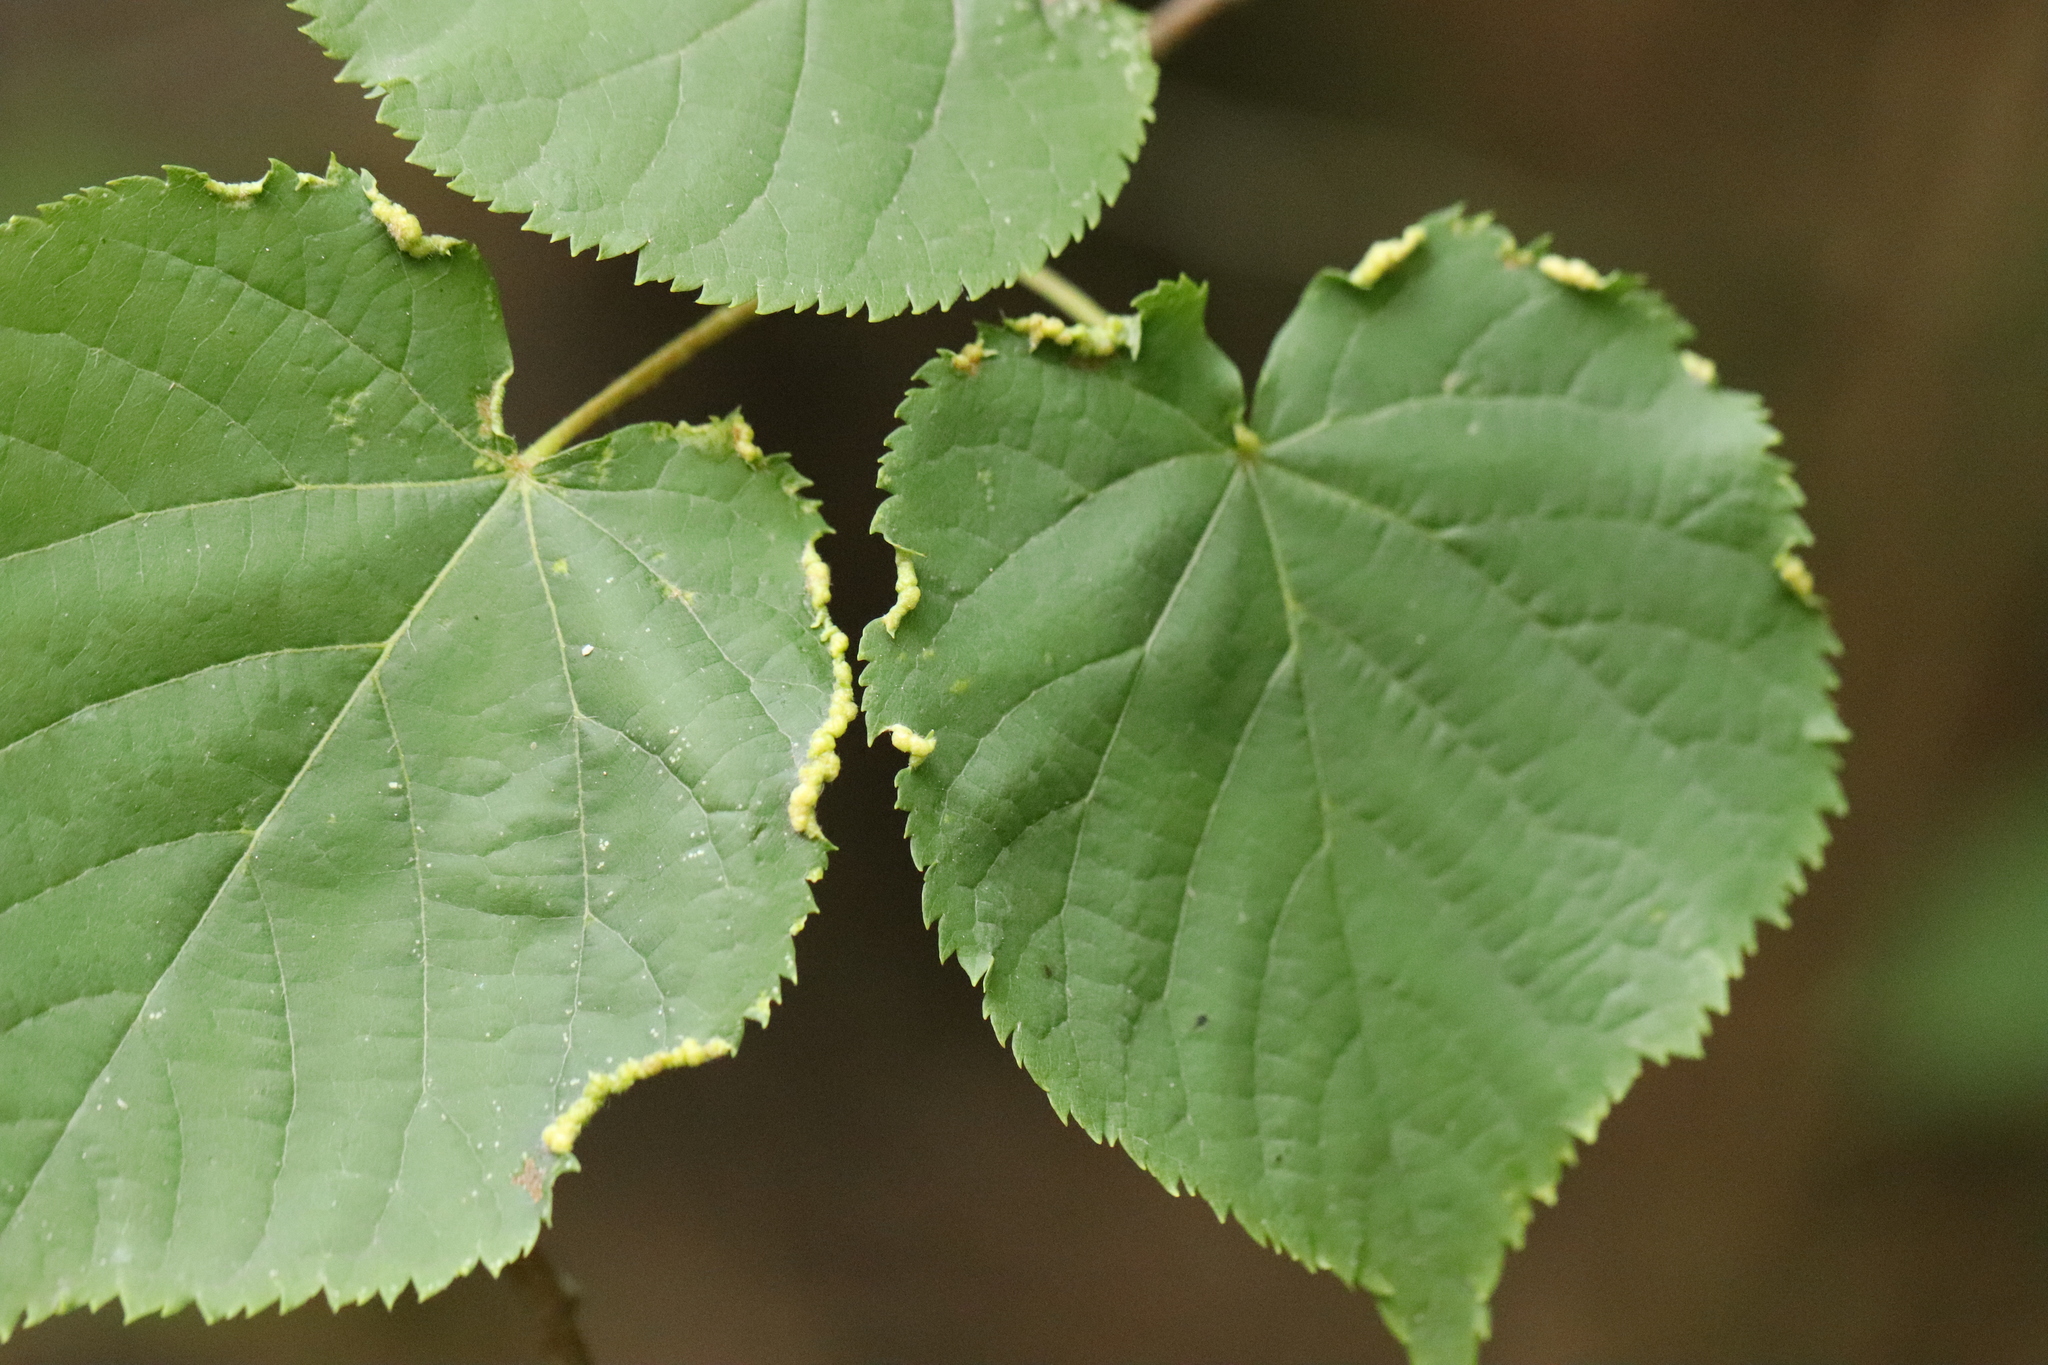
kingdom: Animalia
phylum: Arthropoda
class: Insecta
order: Diptera
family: Cecidomyiidae
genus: Dasineura
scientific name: Dasineura tiliae
